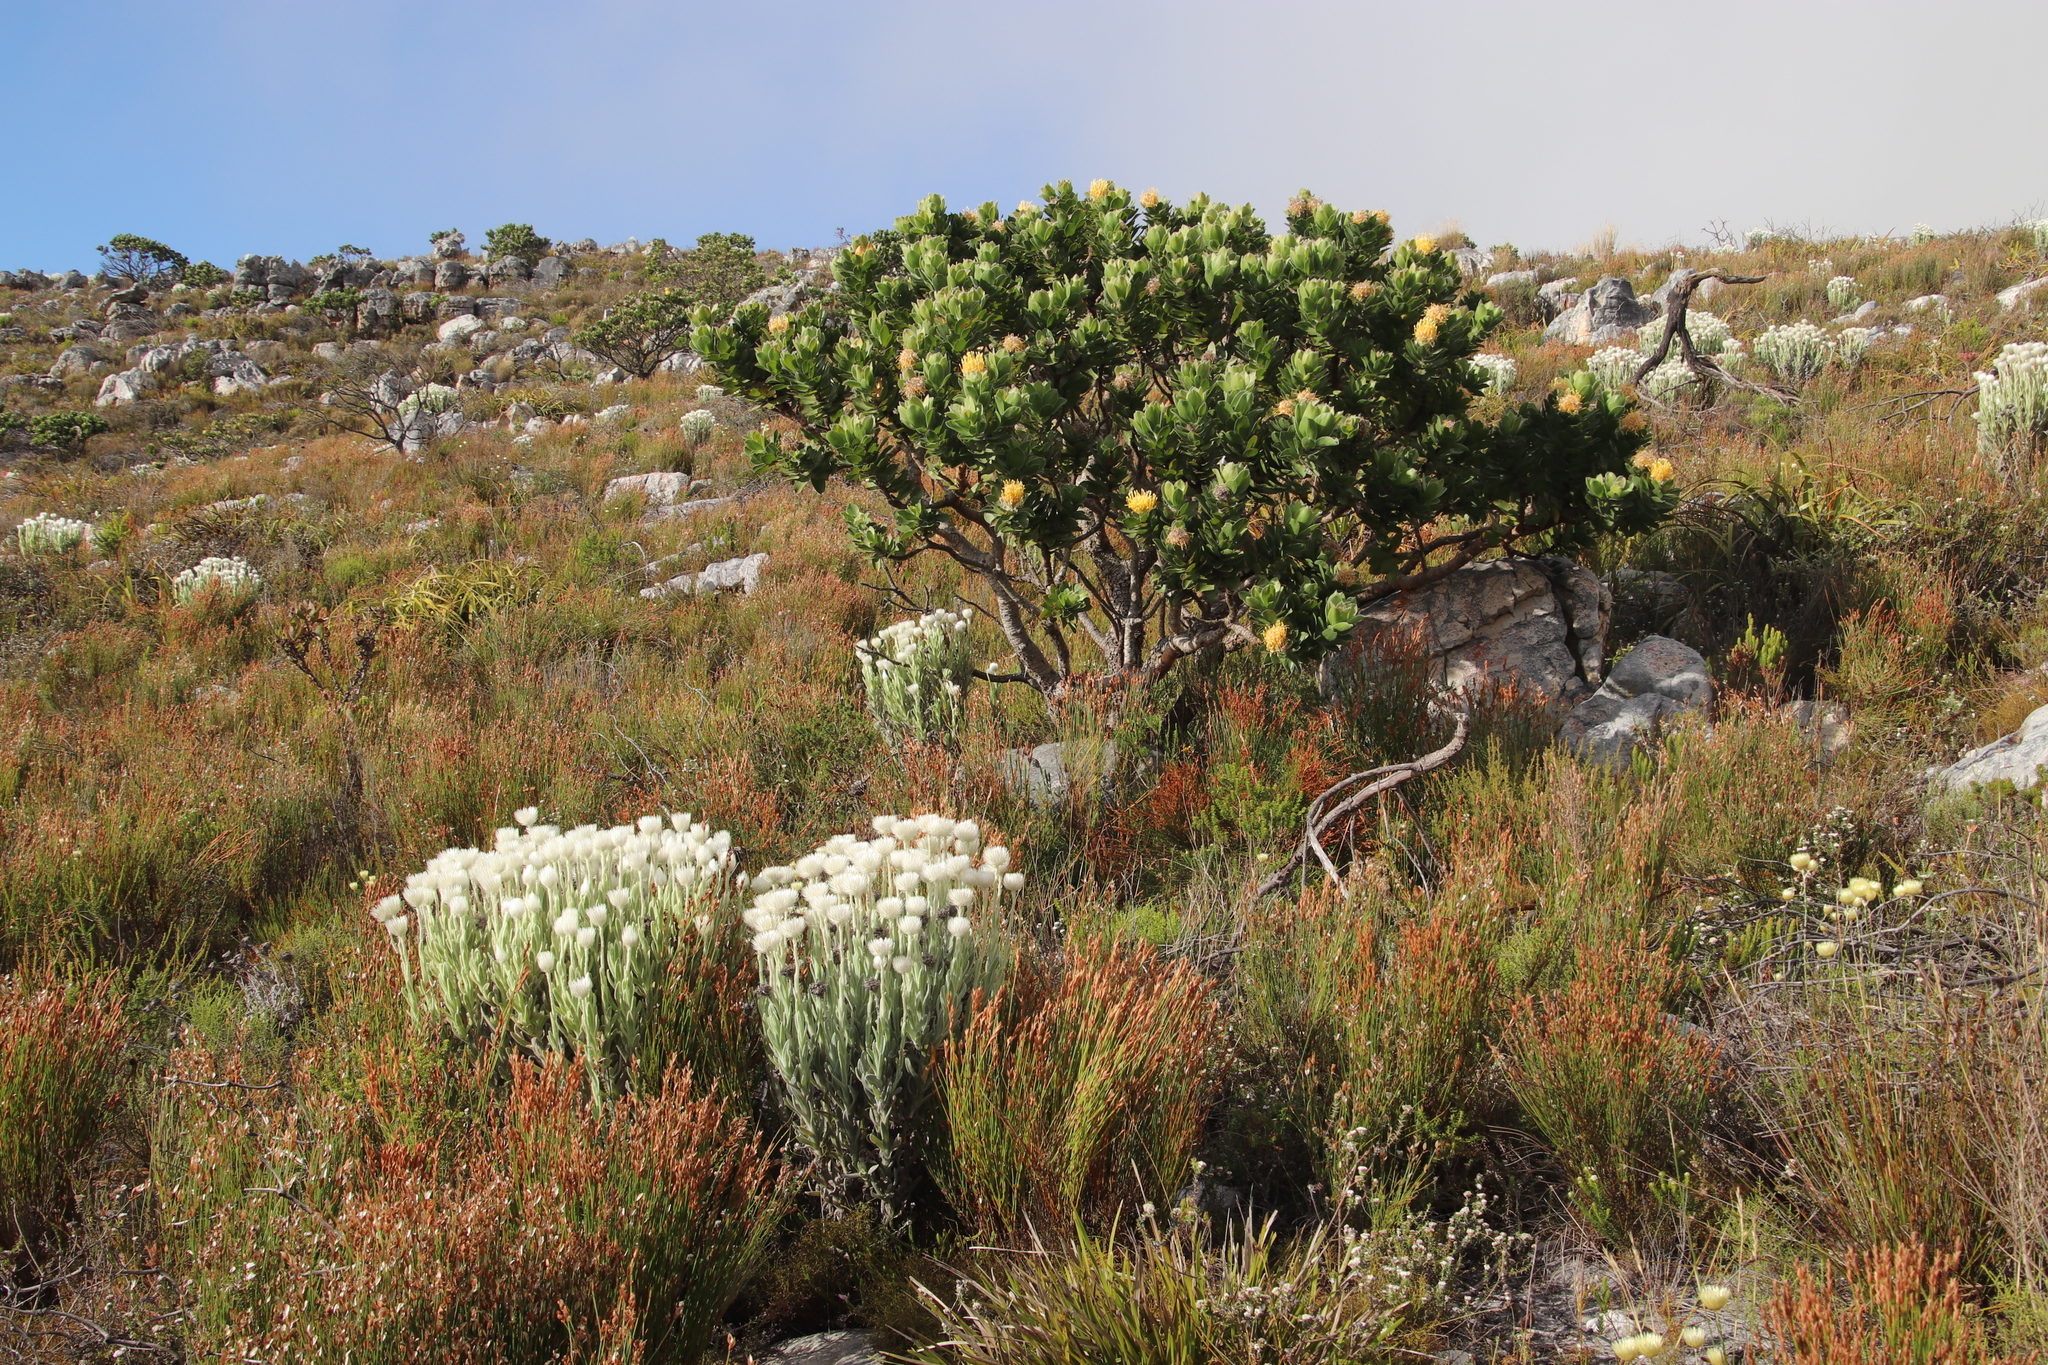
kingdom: Plantae
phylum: Tracheophyta
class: Magnoliopsida
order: Proteales
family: Proteaceae
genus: Leucospermum
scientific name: Leucospermum conocarpodendron
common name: Tree pincushion
